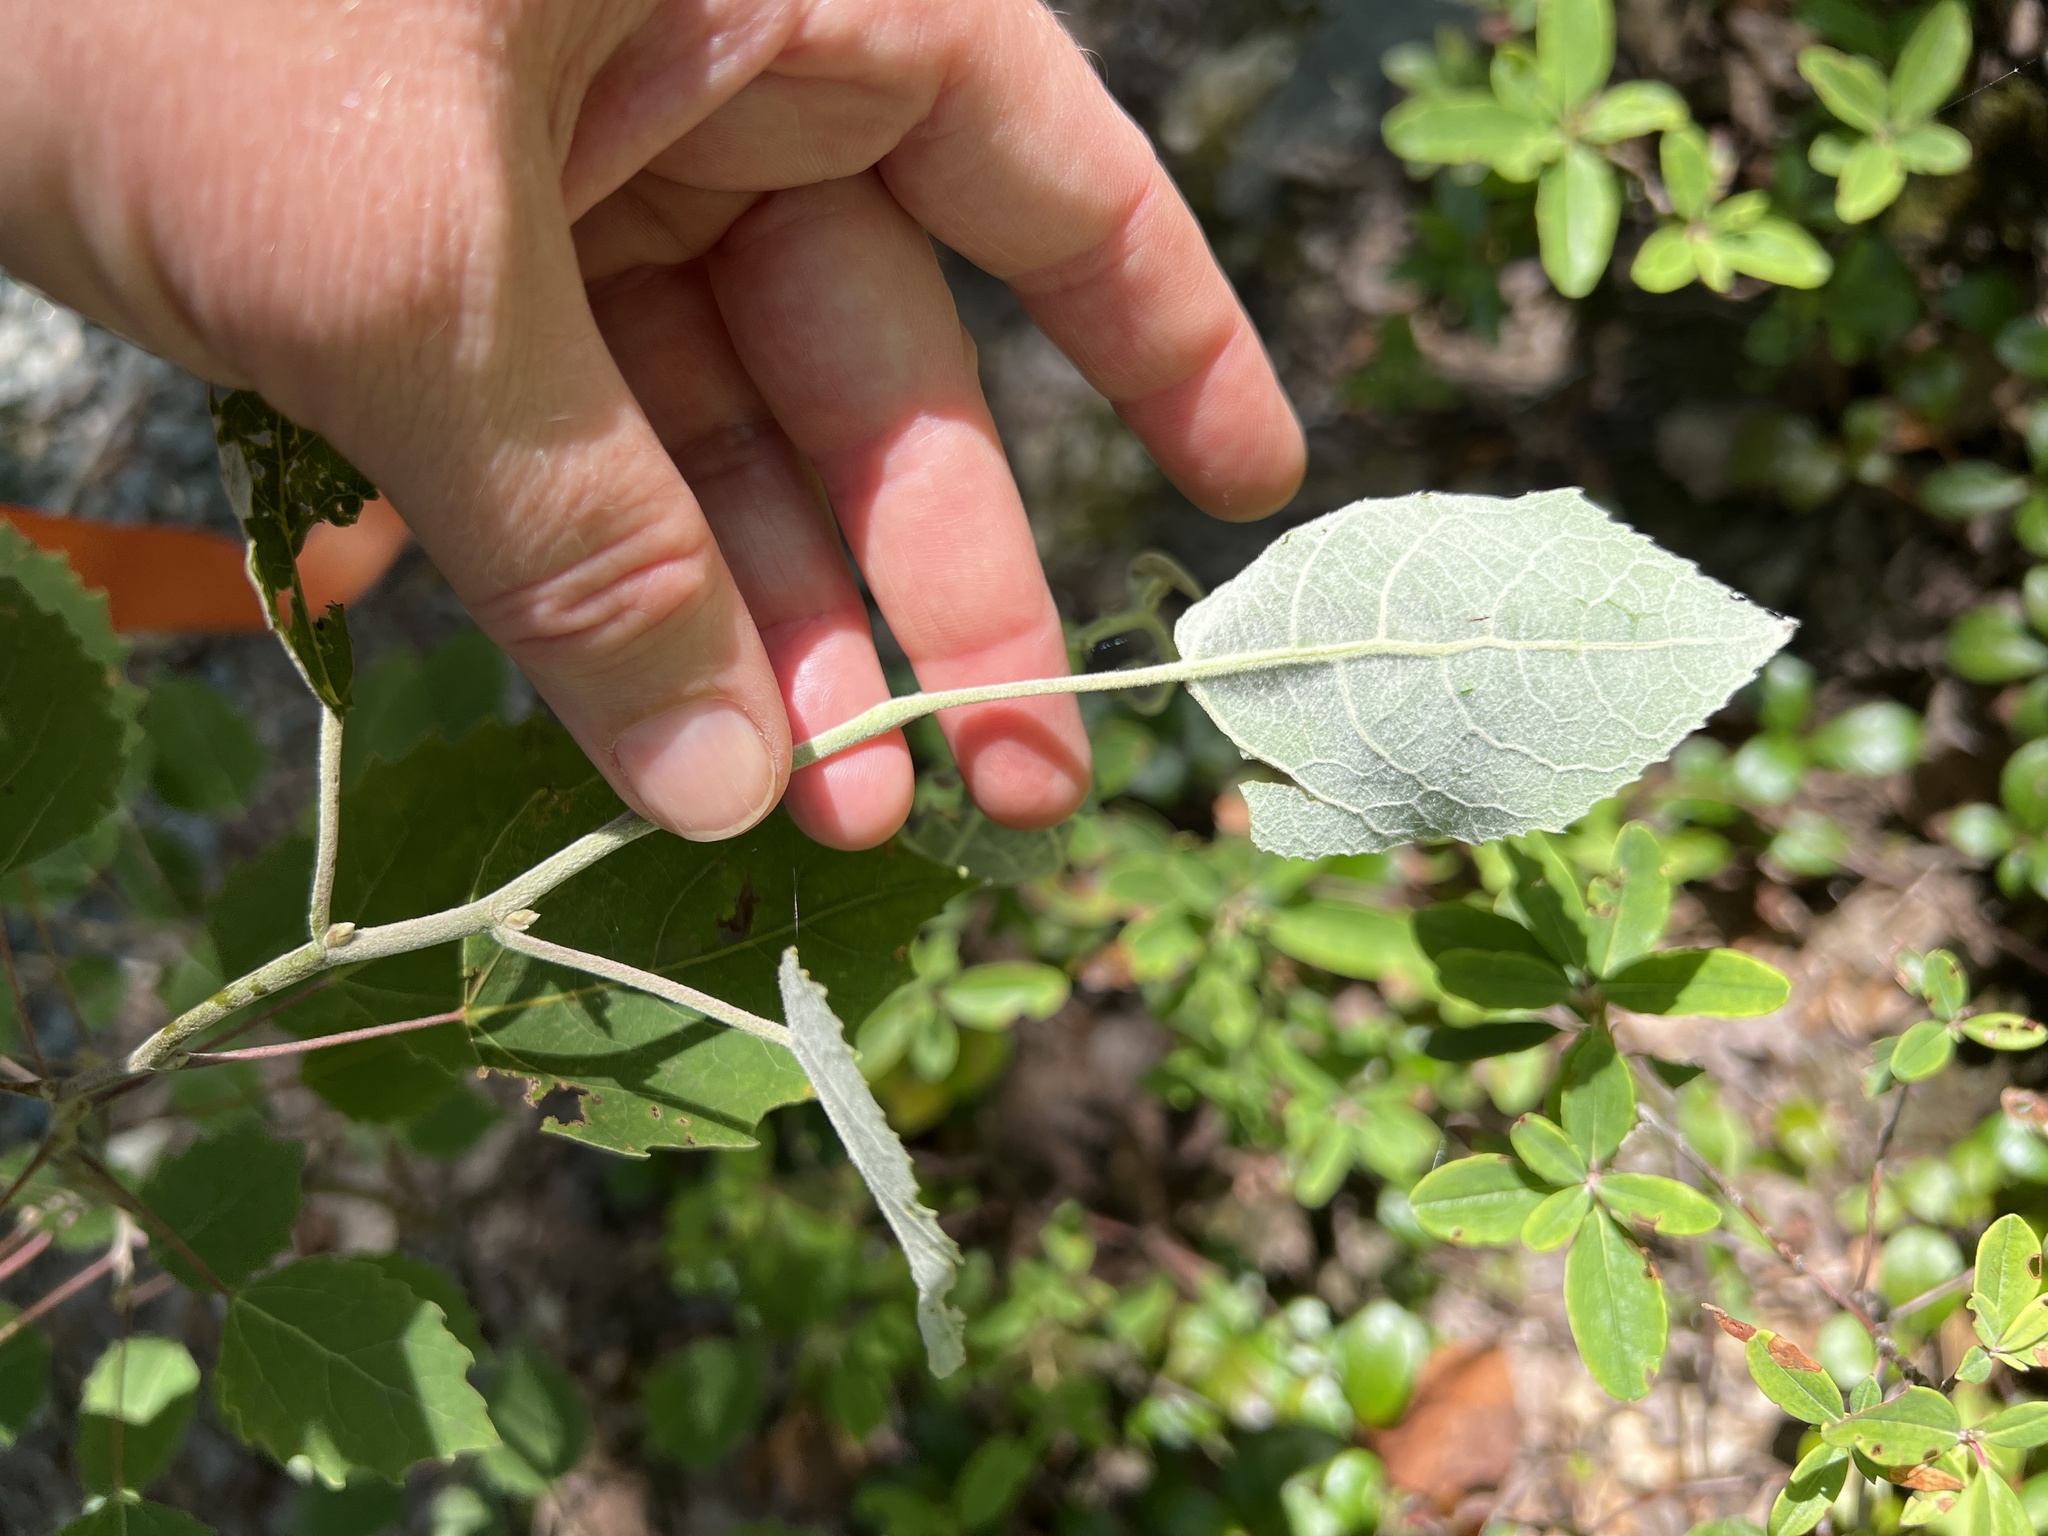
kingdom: Plantae
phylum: Tracheophyta
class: Magnoliopsida
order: Malpighiales
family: Salicaceae
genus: Populus
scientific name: Populus grandidentata
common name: Bigtooth aspen
